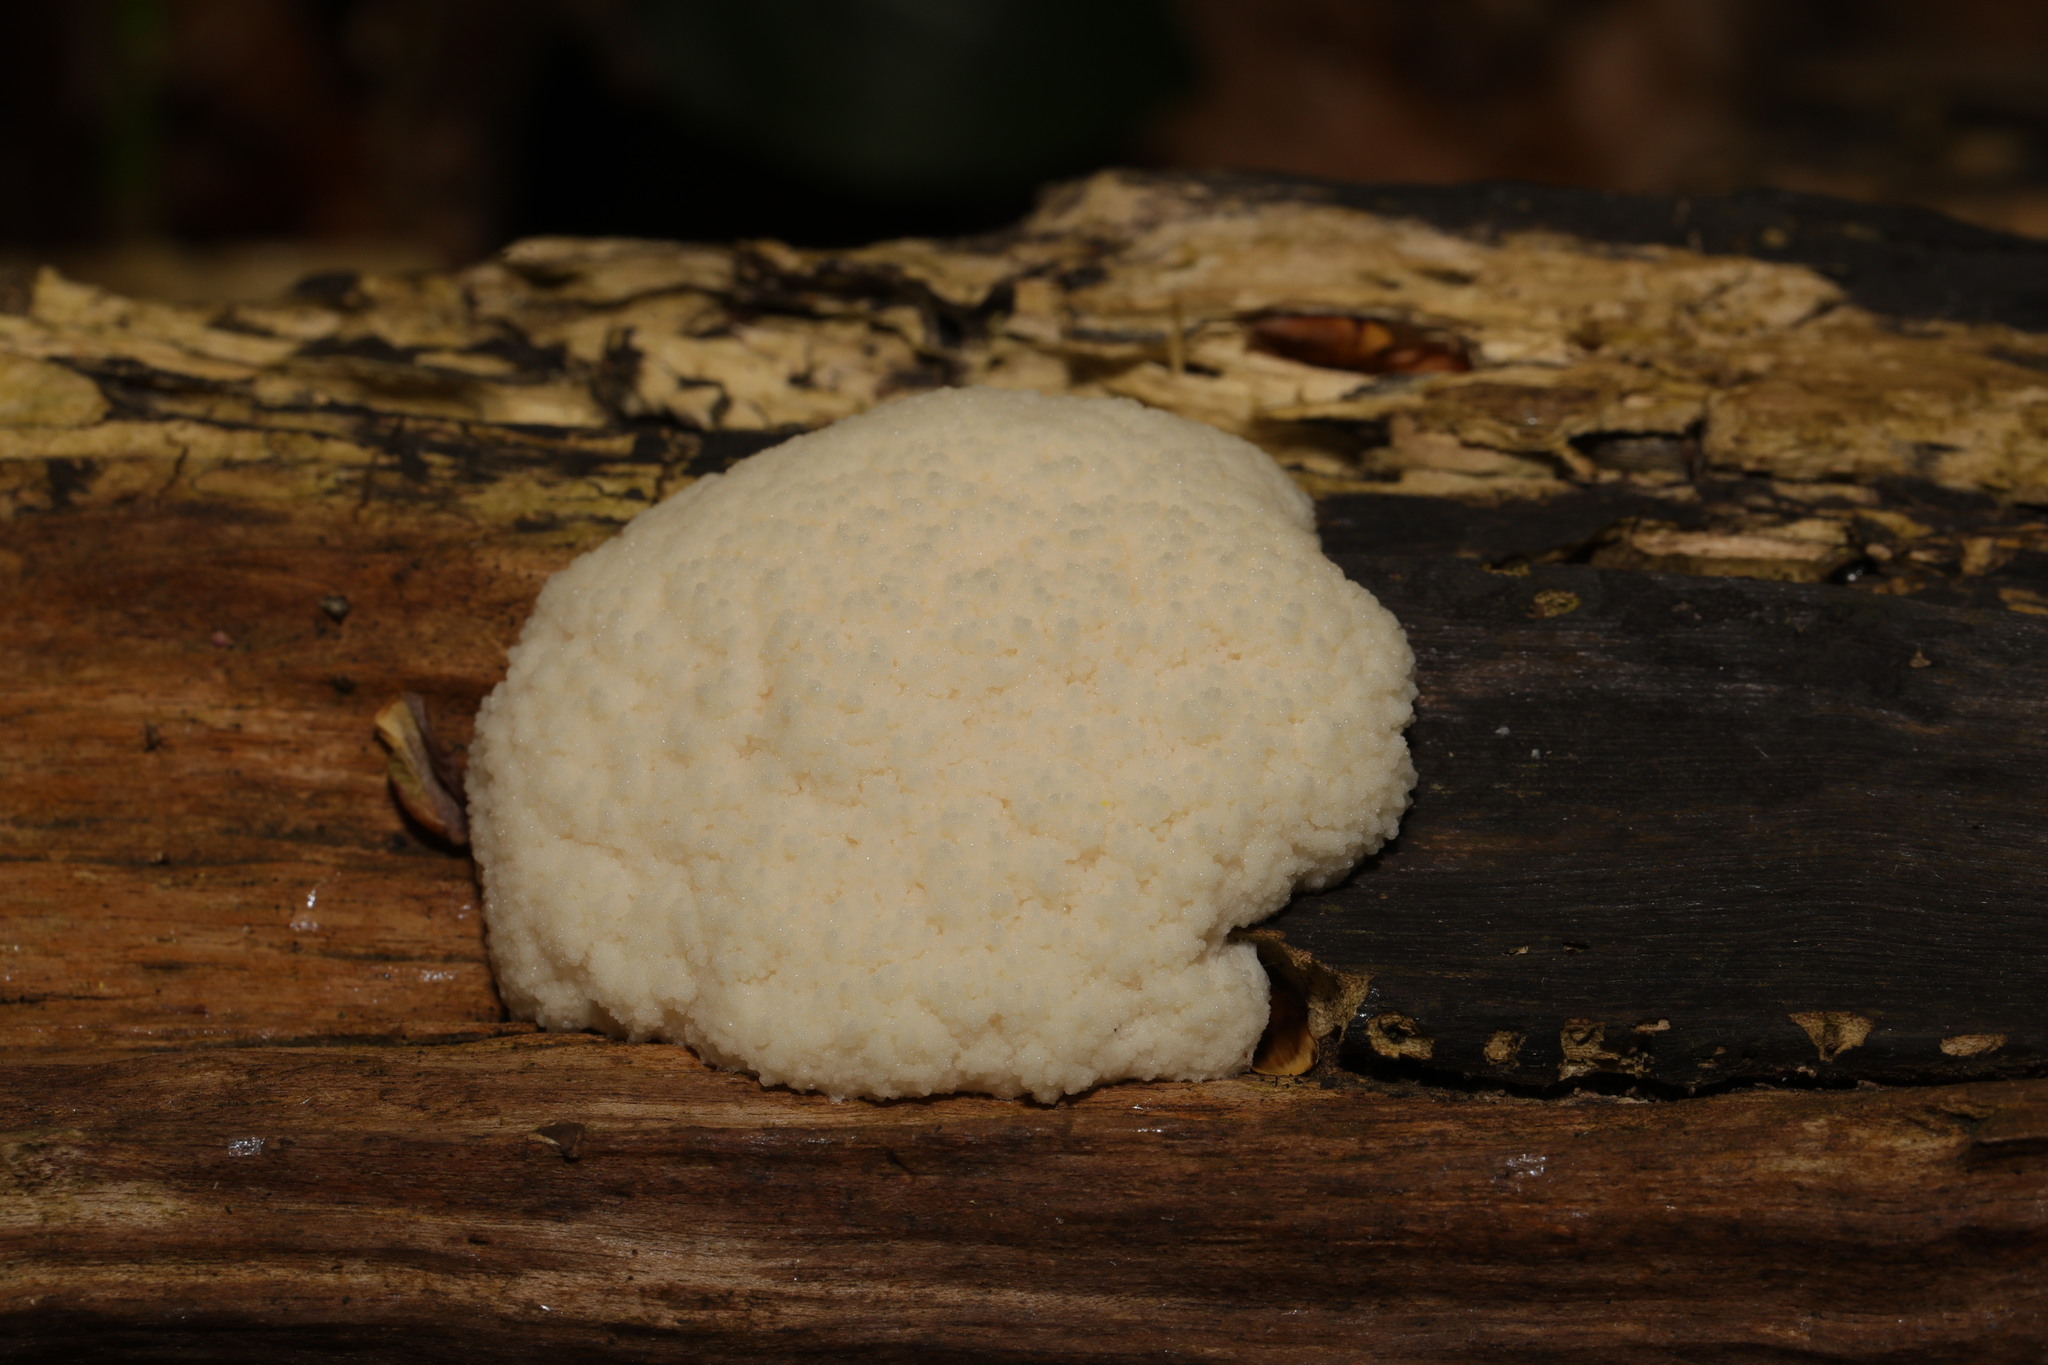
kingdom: Protozoa
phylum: Mycetozoa
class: Myxomycetes
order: Cribrariales
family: Tubiferaceae
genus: Reticularia
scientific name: Reticularia lycoperdon
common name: False puffball
